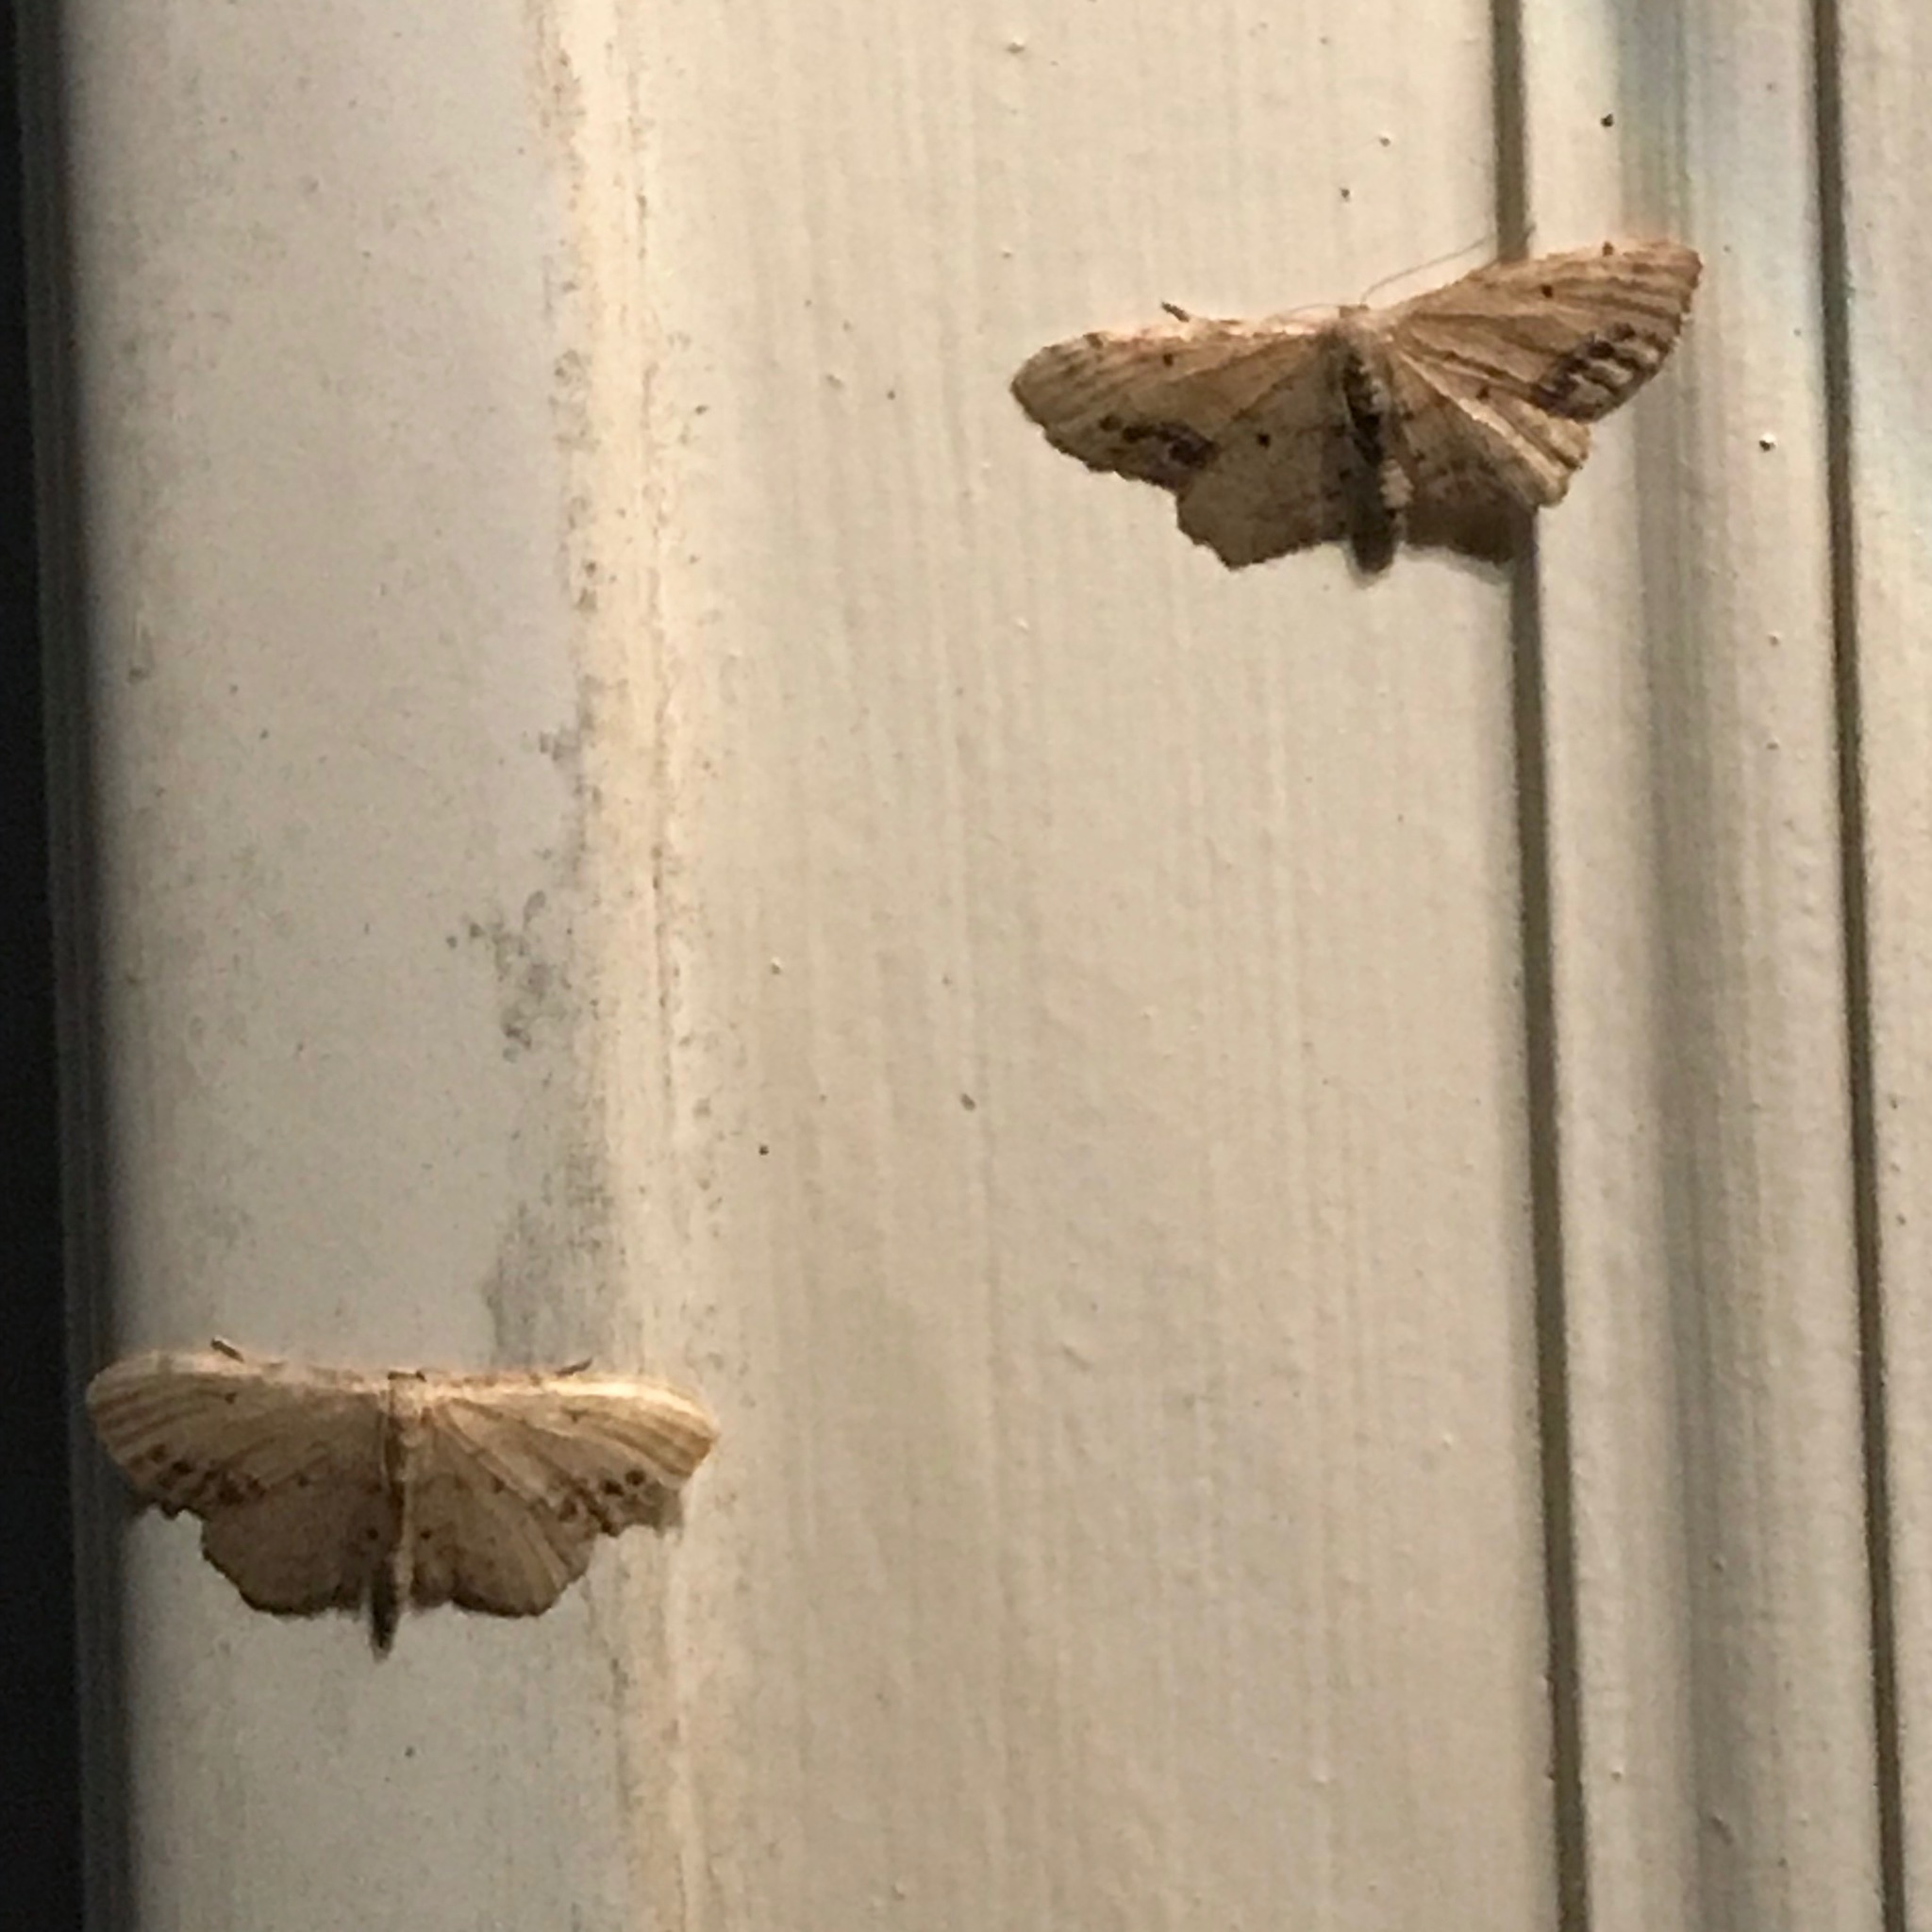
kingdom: Animalia
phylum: Arthropoda
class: Insecta
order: Lepidoptera
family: Geometridae
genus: Idaea
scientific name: Idaea dimidiata
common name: Single-dotted wave
